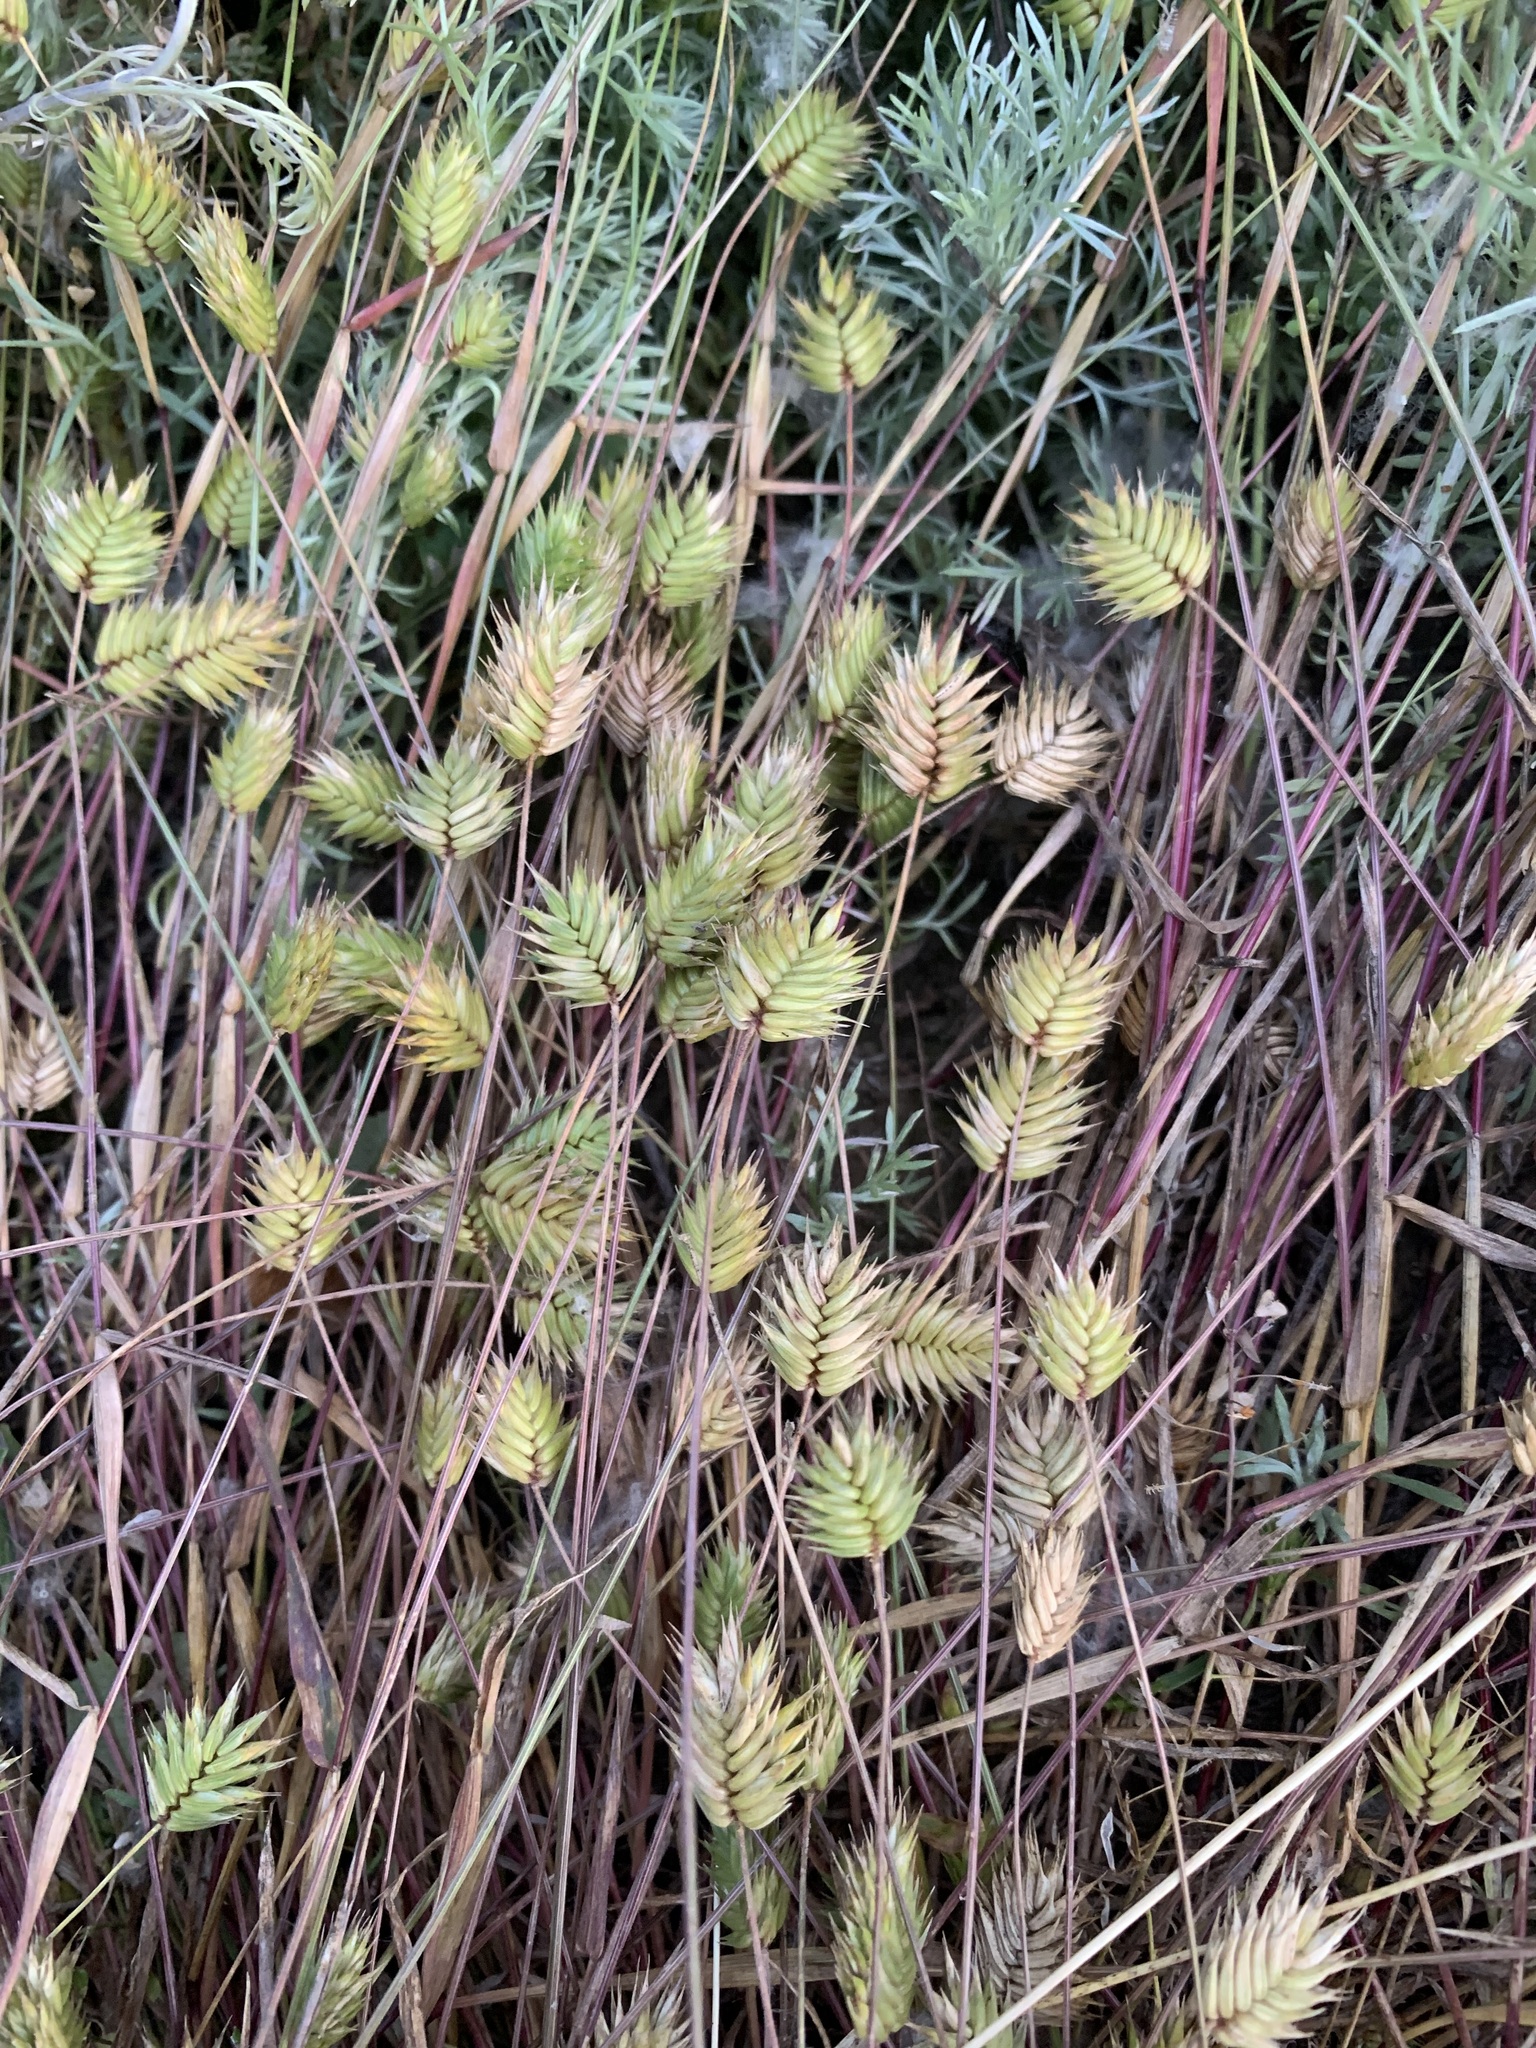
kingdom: Plantae
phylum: Tracheophyta
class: Liliopsida
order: Poales
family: Poaceae
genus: Eremopyrum
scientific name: Eremopyrum triticeum
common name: Annual wheatgrass
